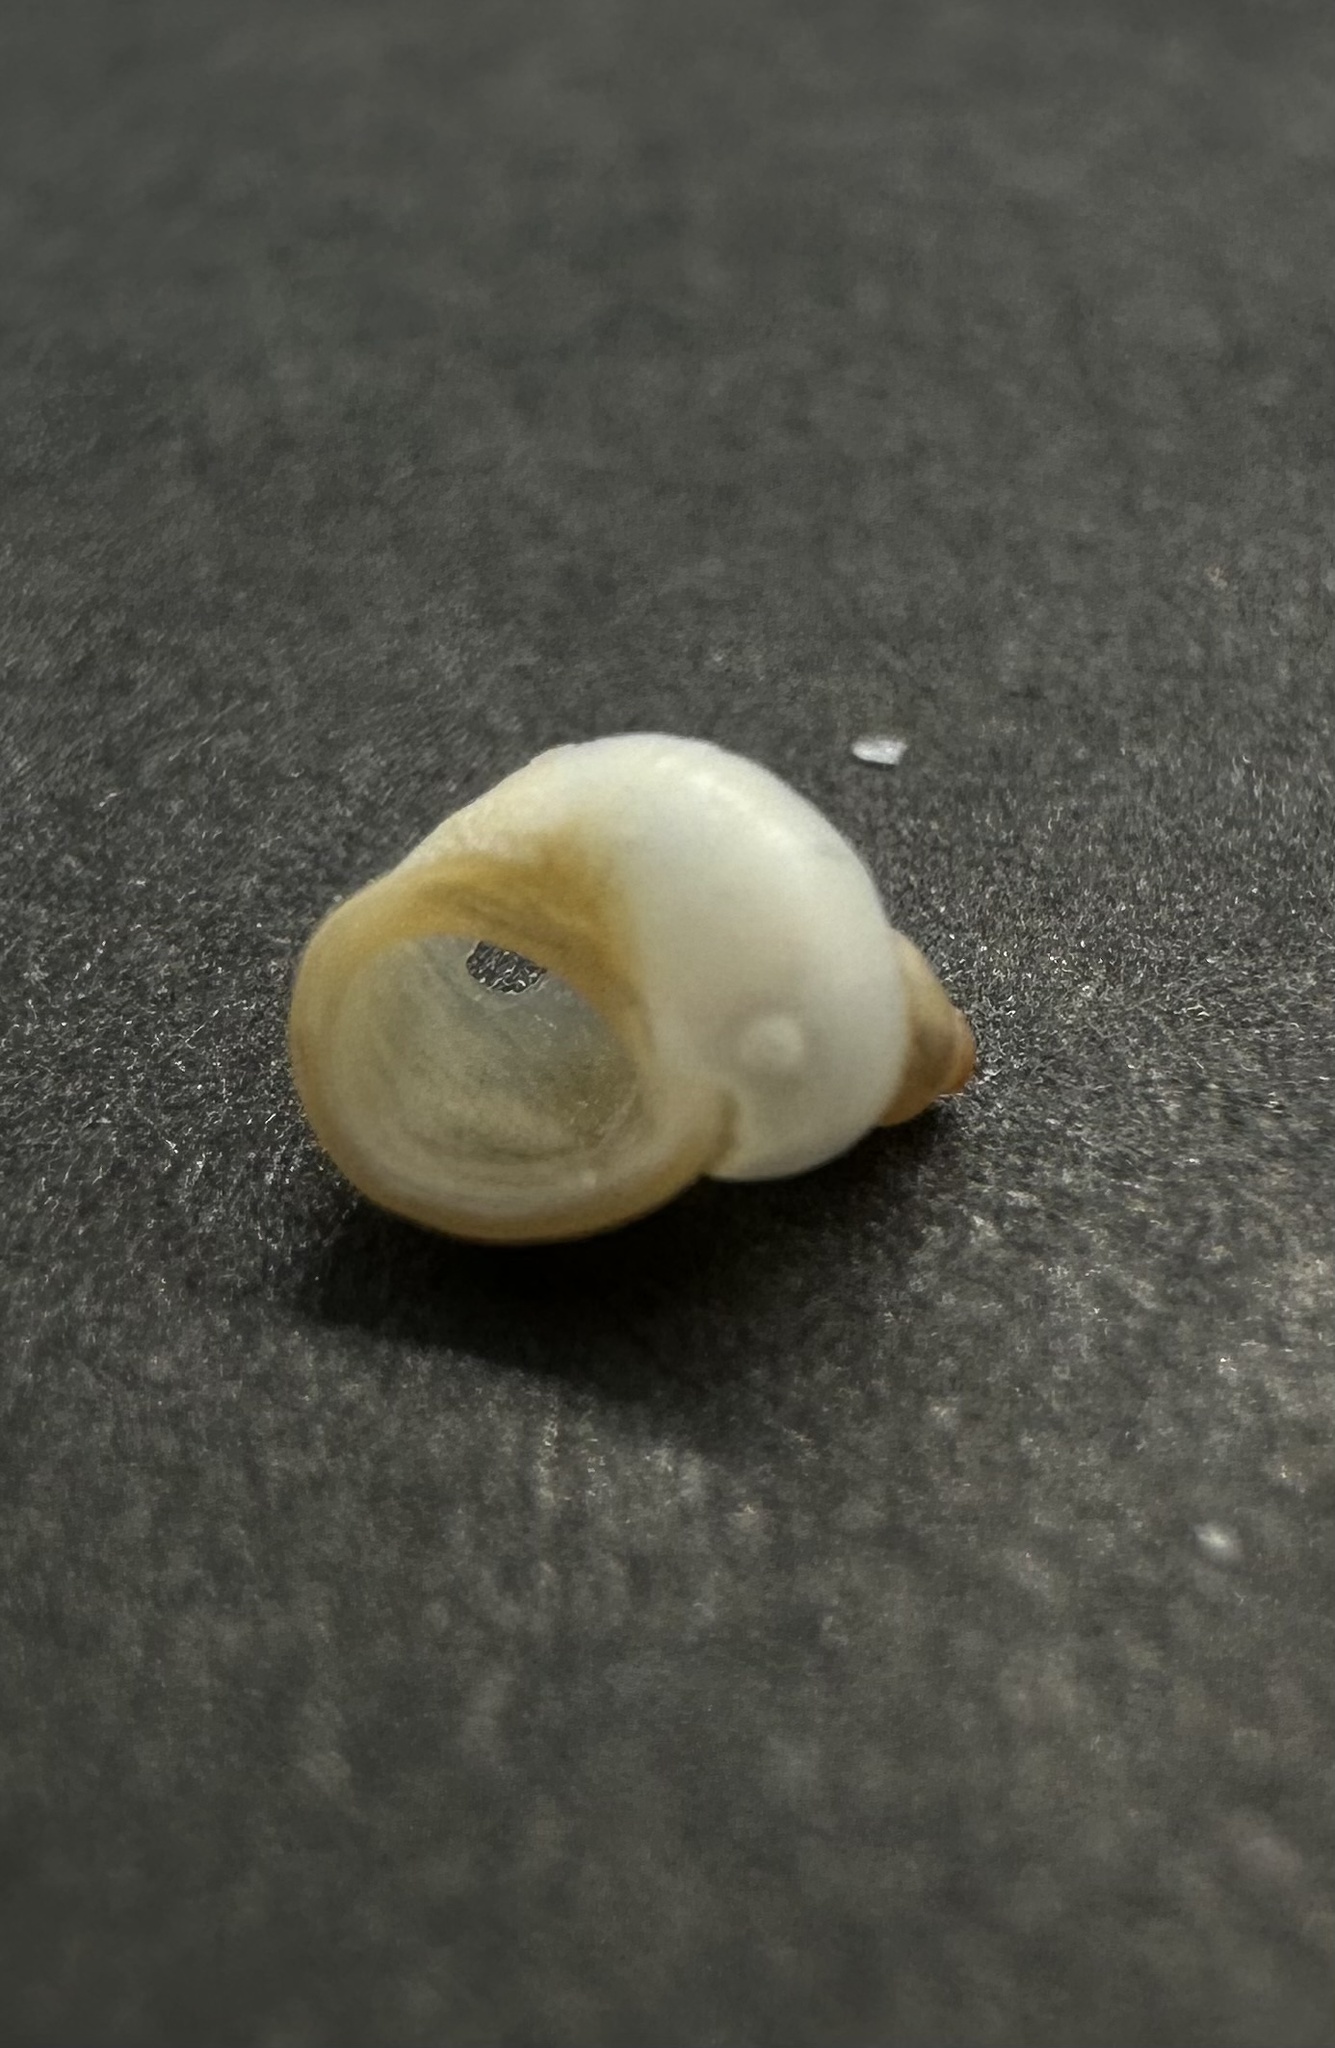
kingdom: Animalia
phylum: Mollusca
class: Gastropoda
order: Littorinimorpha
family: Littorinidae
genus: Lacuna
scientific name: Lacuna vincta
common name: Banded chink shell
